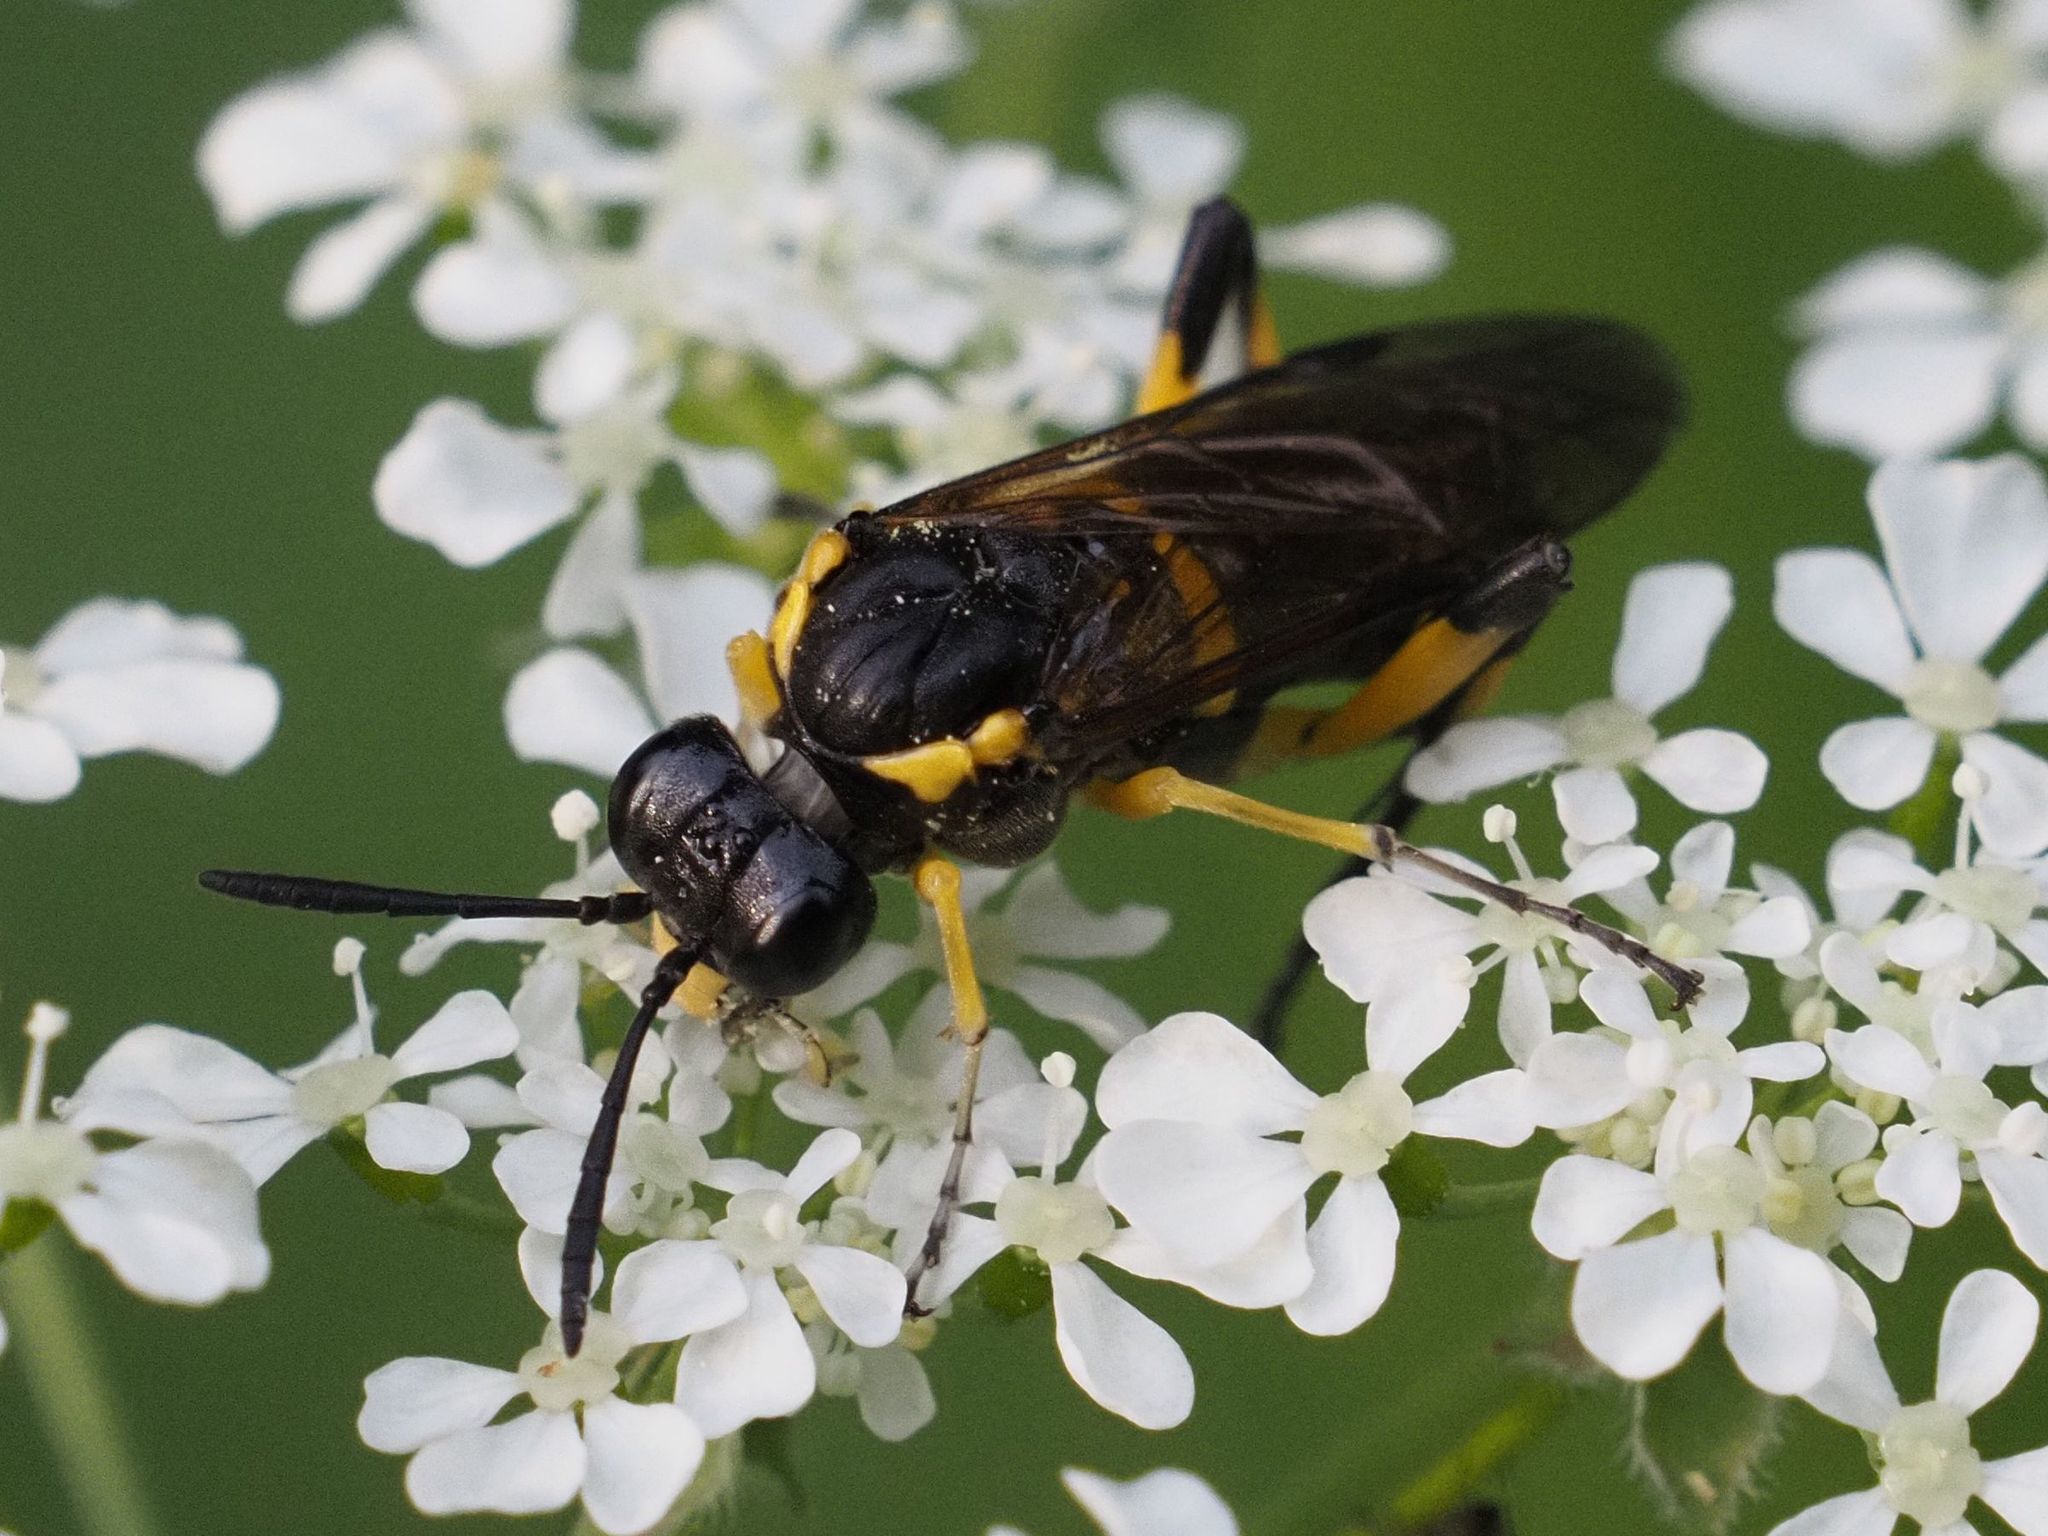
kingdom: Animalia
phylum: Arthropoda
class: Insecta
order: Hymenoptera
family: Tenthredinidae
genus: Macrophya
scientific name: Macrophya montana
